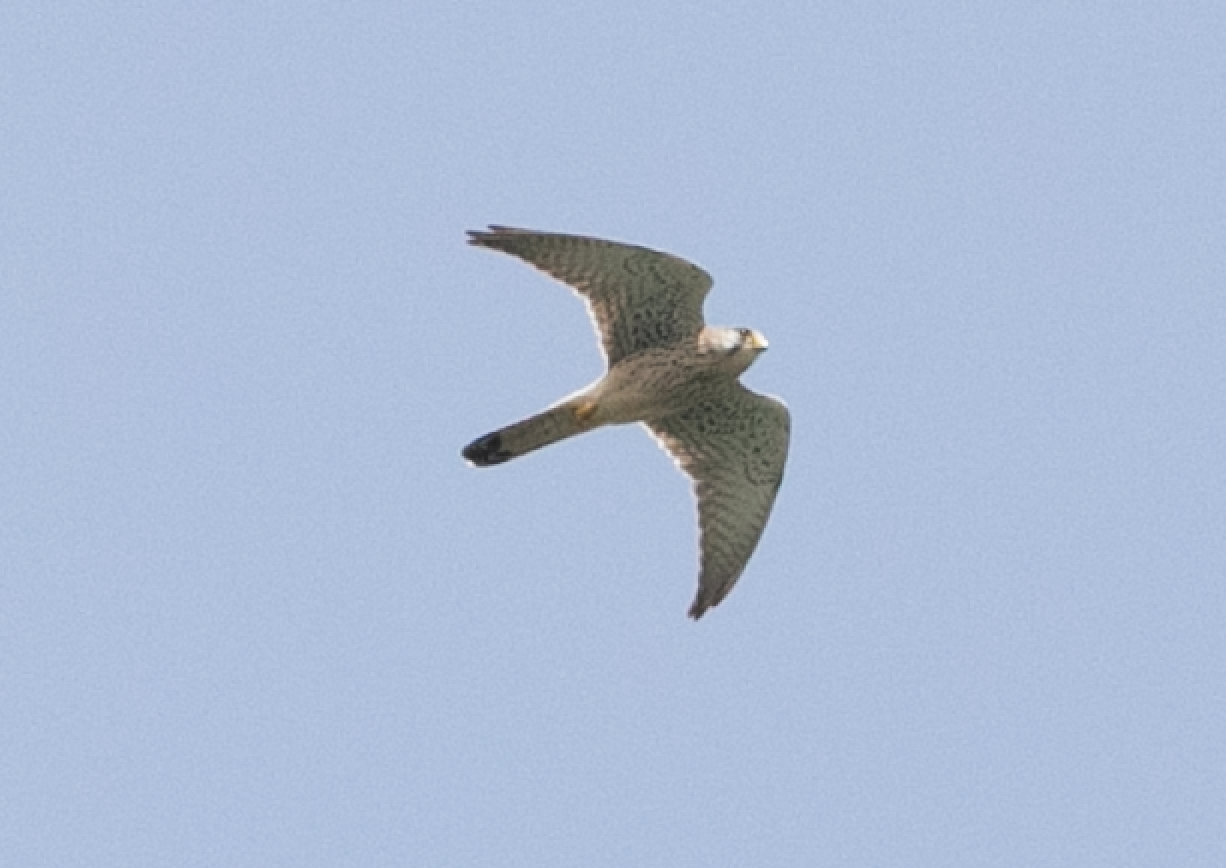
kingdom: Animalia
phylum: Chordata
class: Aves
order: Falconiformes
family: Falconidae
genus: Falco
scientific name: Falco tinnunculus
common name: Common kestrel
